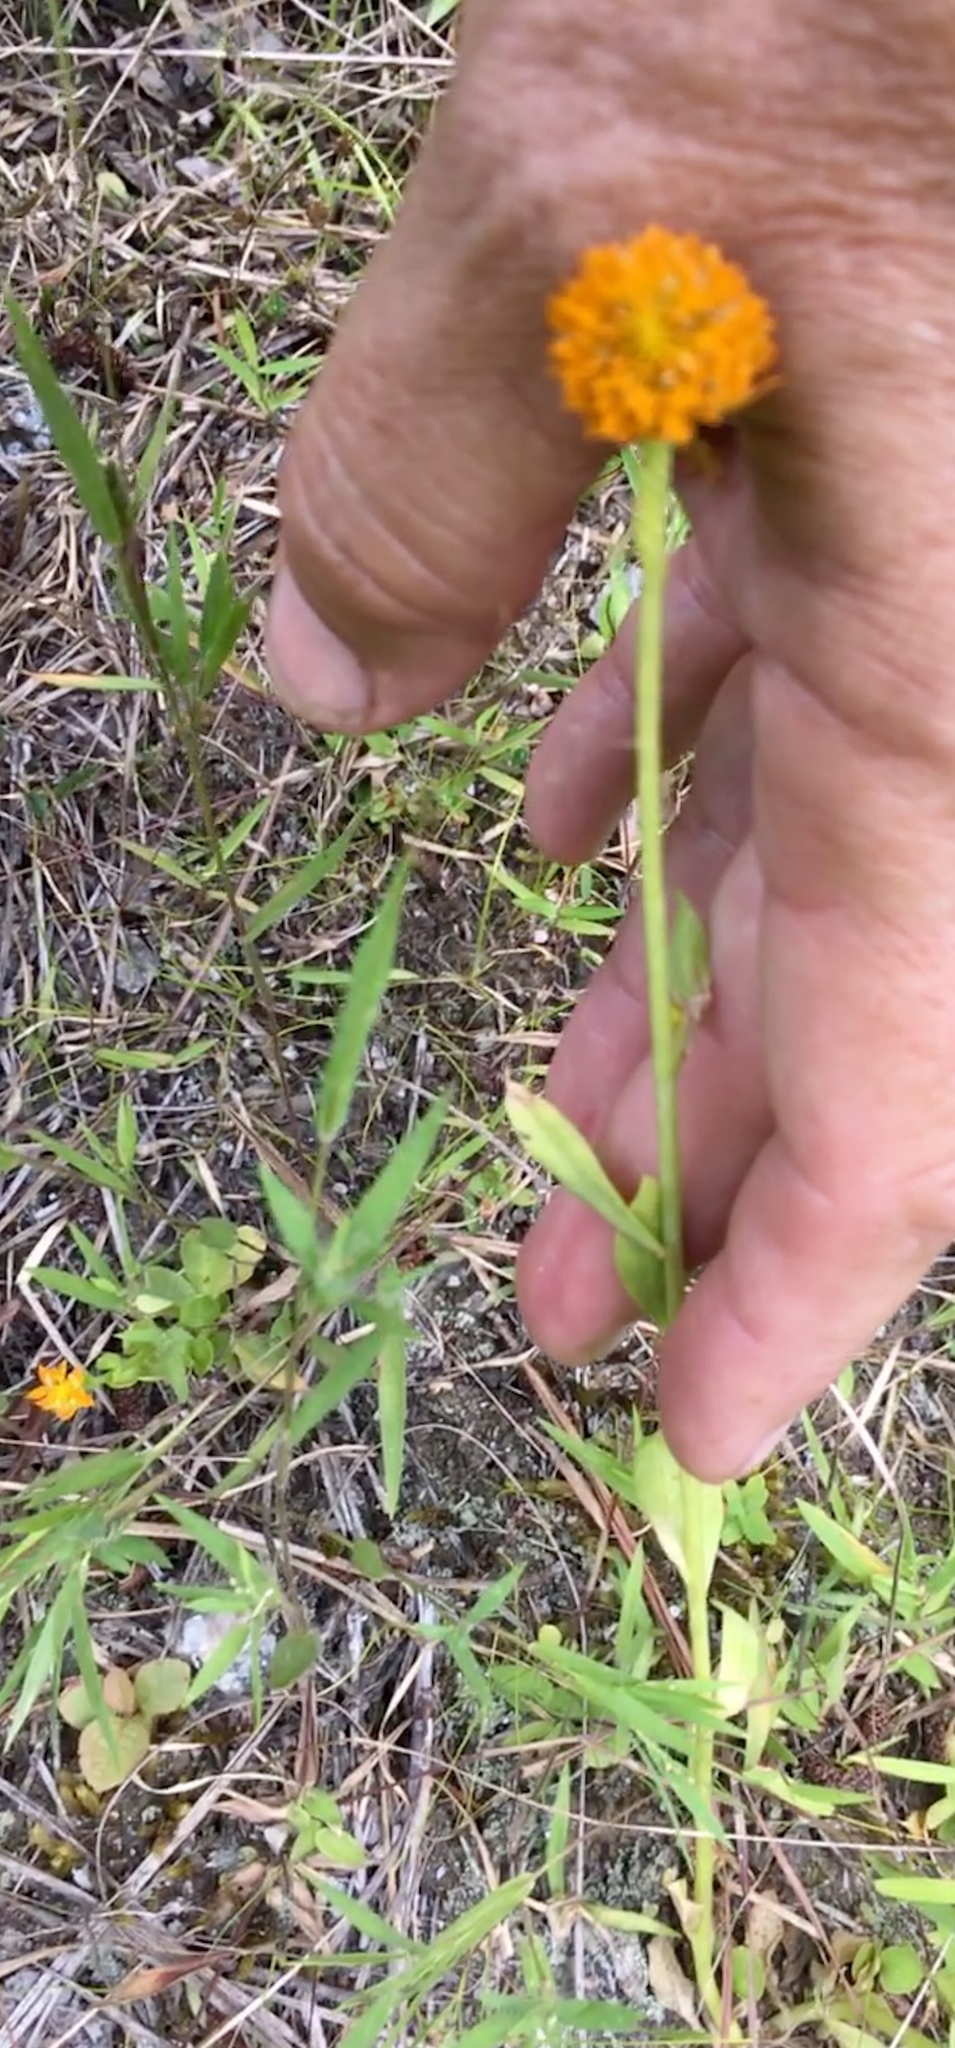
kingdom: Plantae
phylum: Tracheophyta
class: Magnoliopsida
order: Fabales
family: Polygalaceae
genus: Polygala
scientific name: Polygala lutea
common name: Orange milkwort
